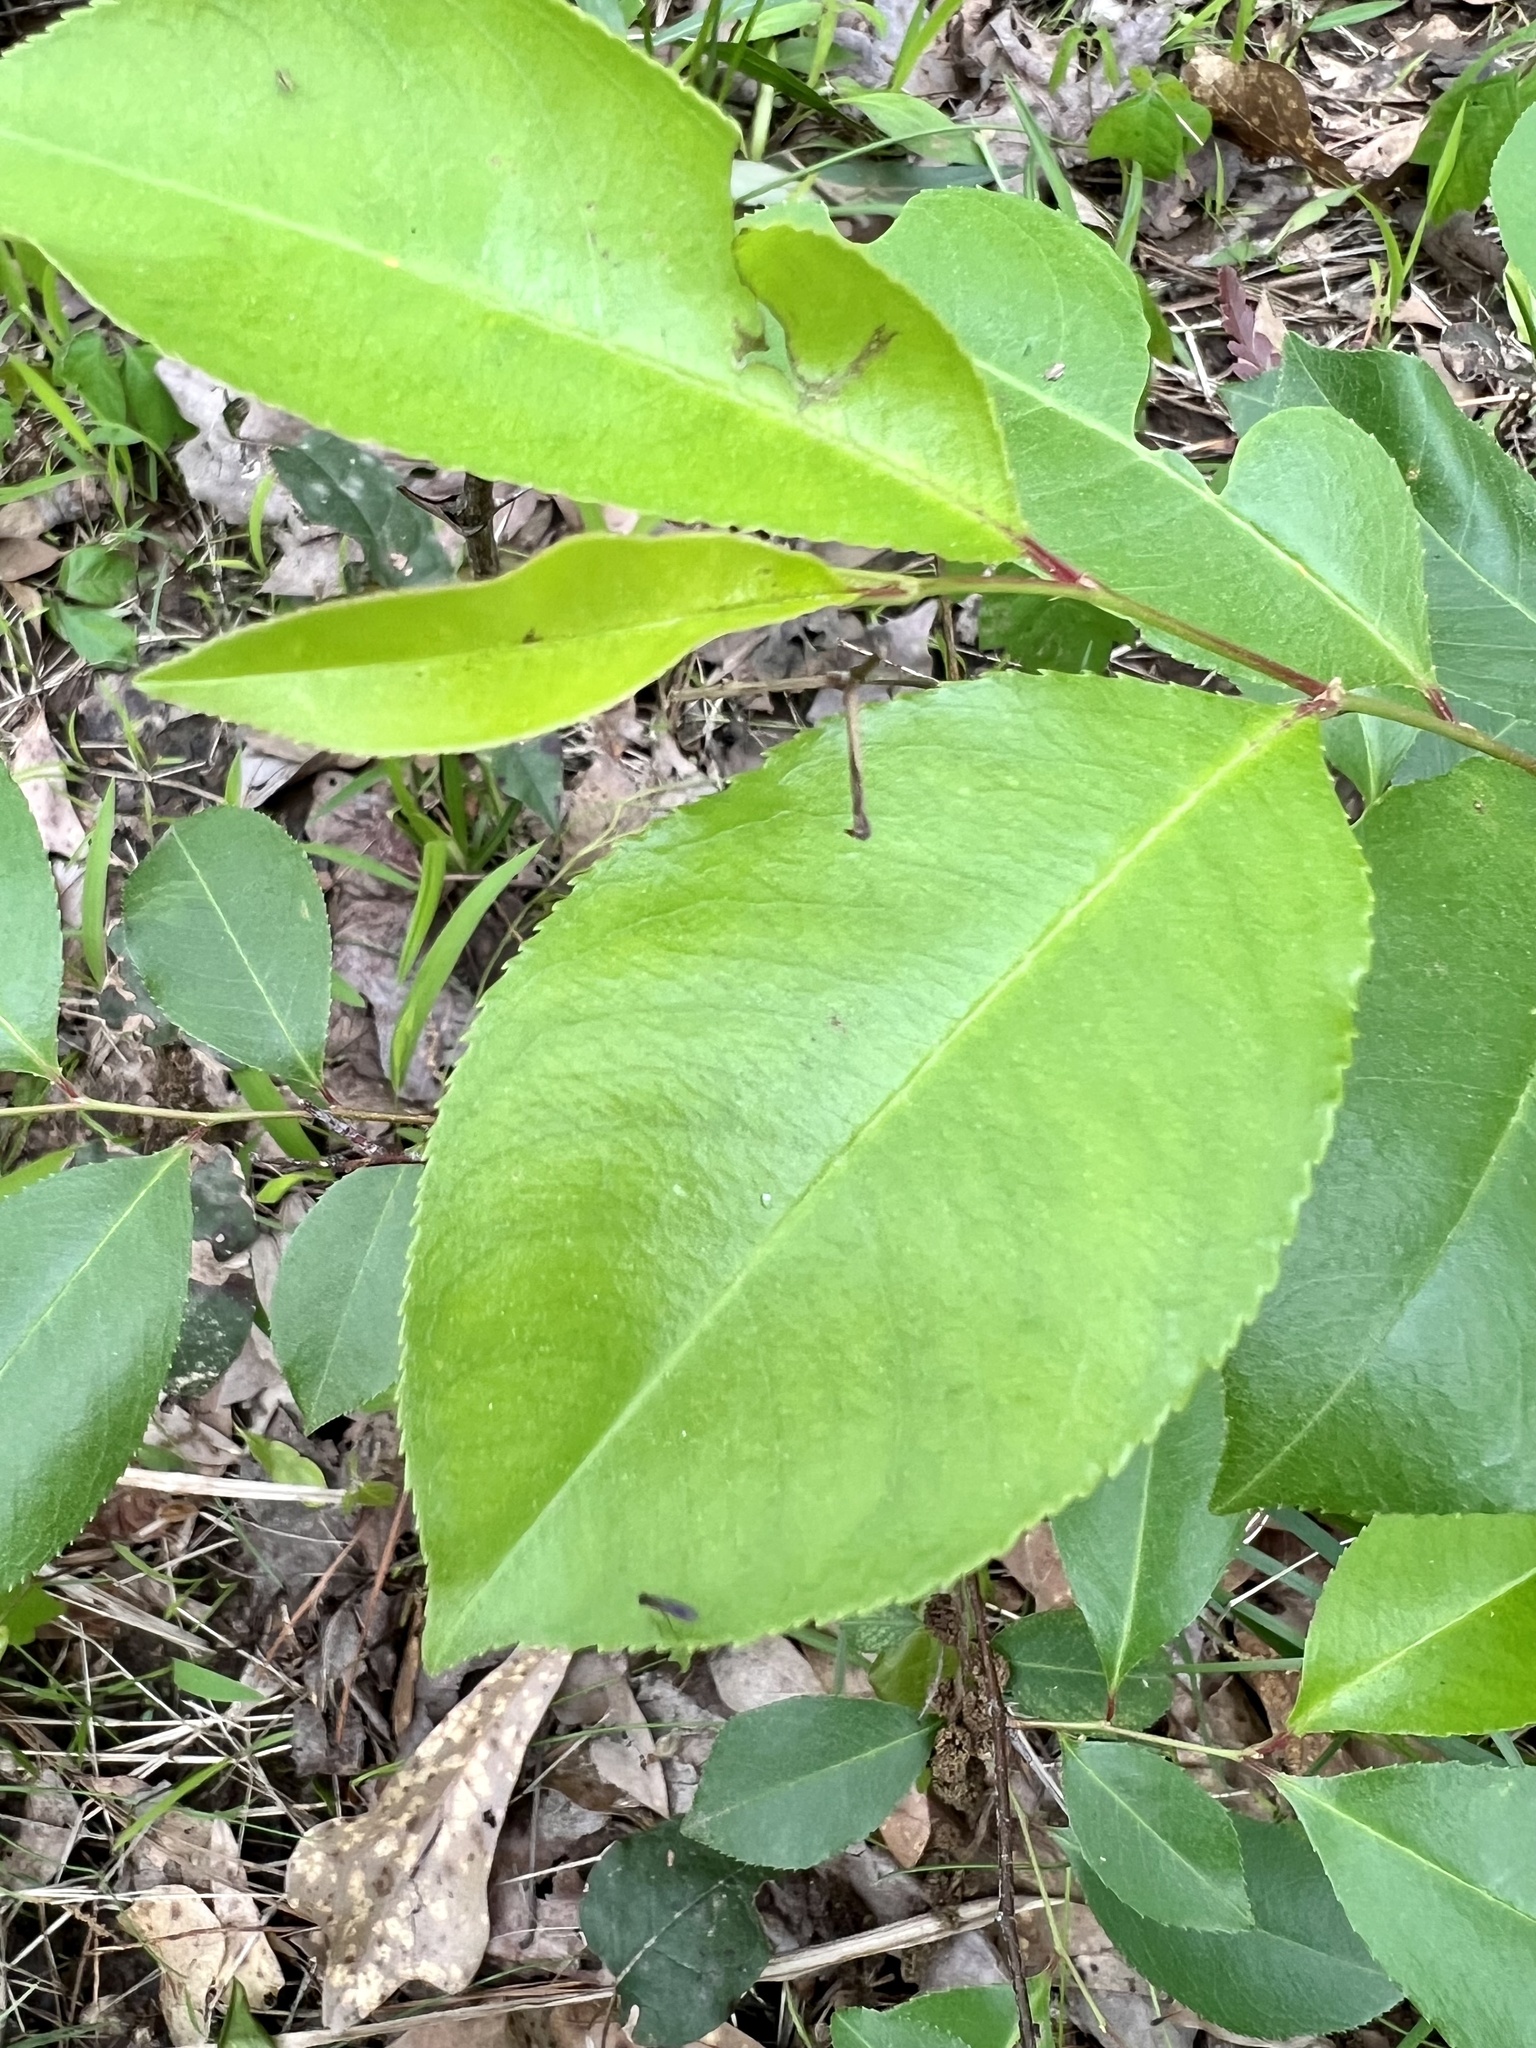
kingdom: Plantae
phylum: Tracheophyta
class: Magnoliopsida
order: Rosales
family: Rosaceae
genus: Prunus
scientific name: Prunus serotina
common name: Black cherry
